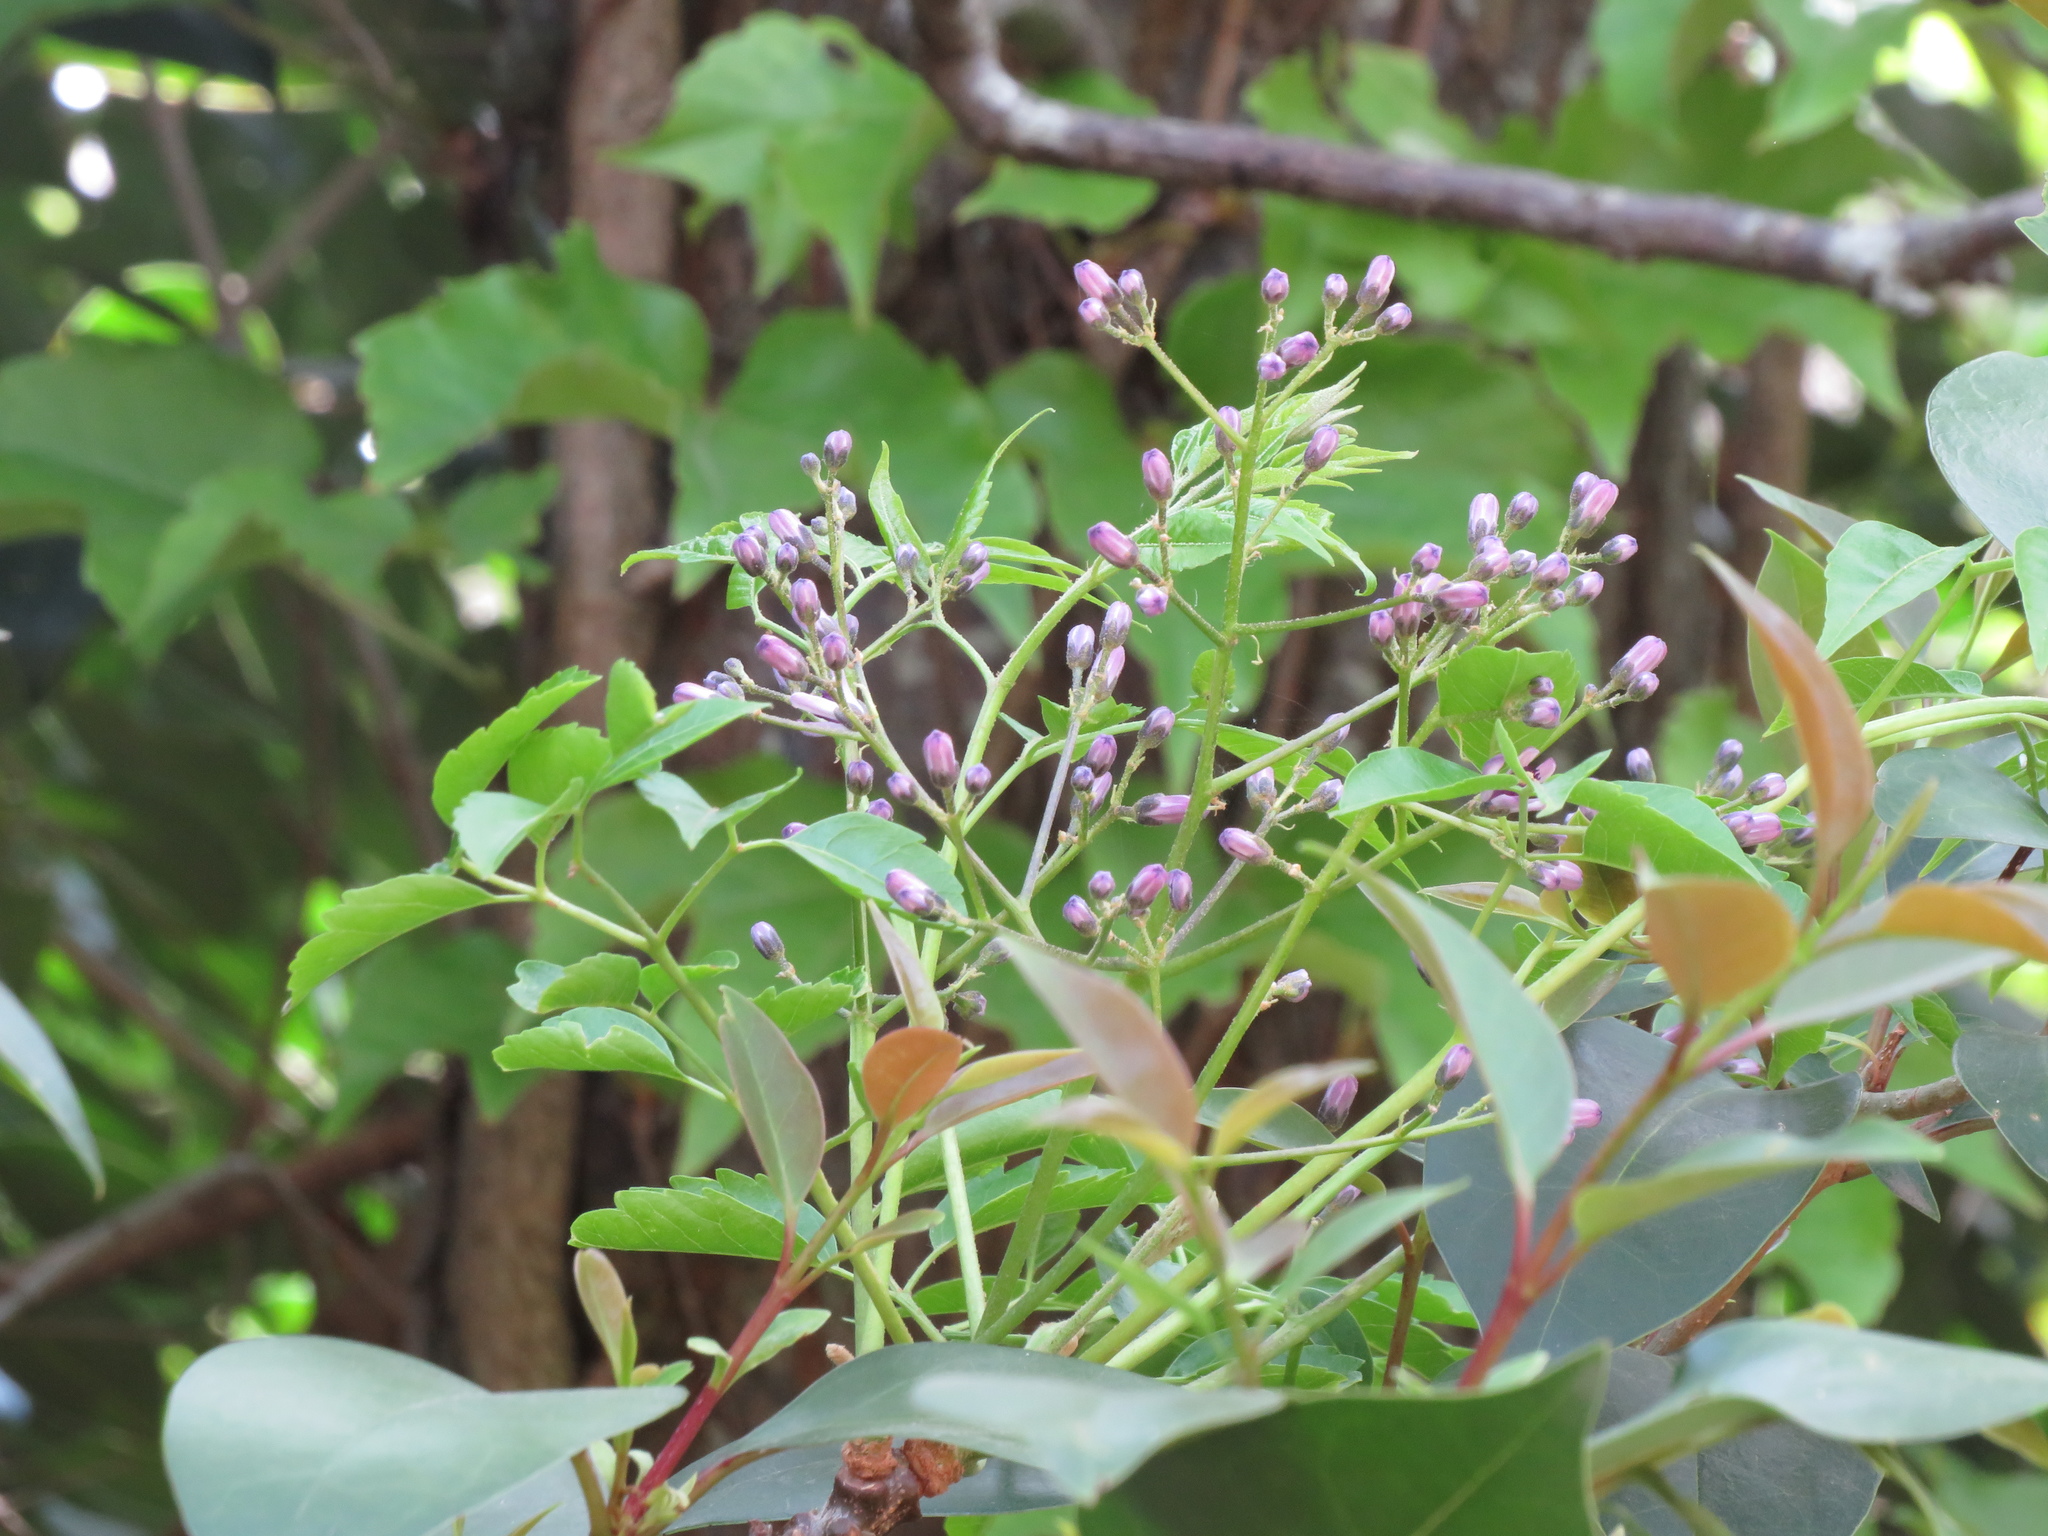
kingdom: Plantae
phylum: Tracheophyta
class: Magnoliopsida
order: Sapindales
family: Meliaceae
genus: Melia
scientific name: Melia azedarach
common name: Chinaberrytree
